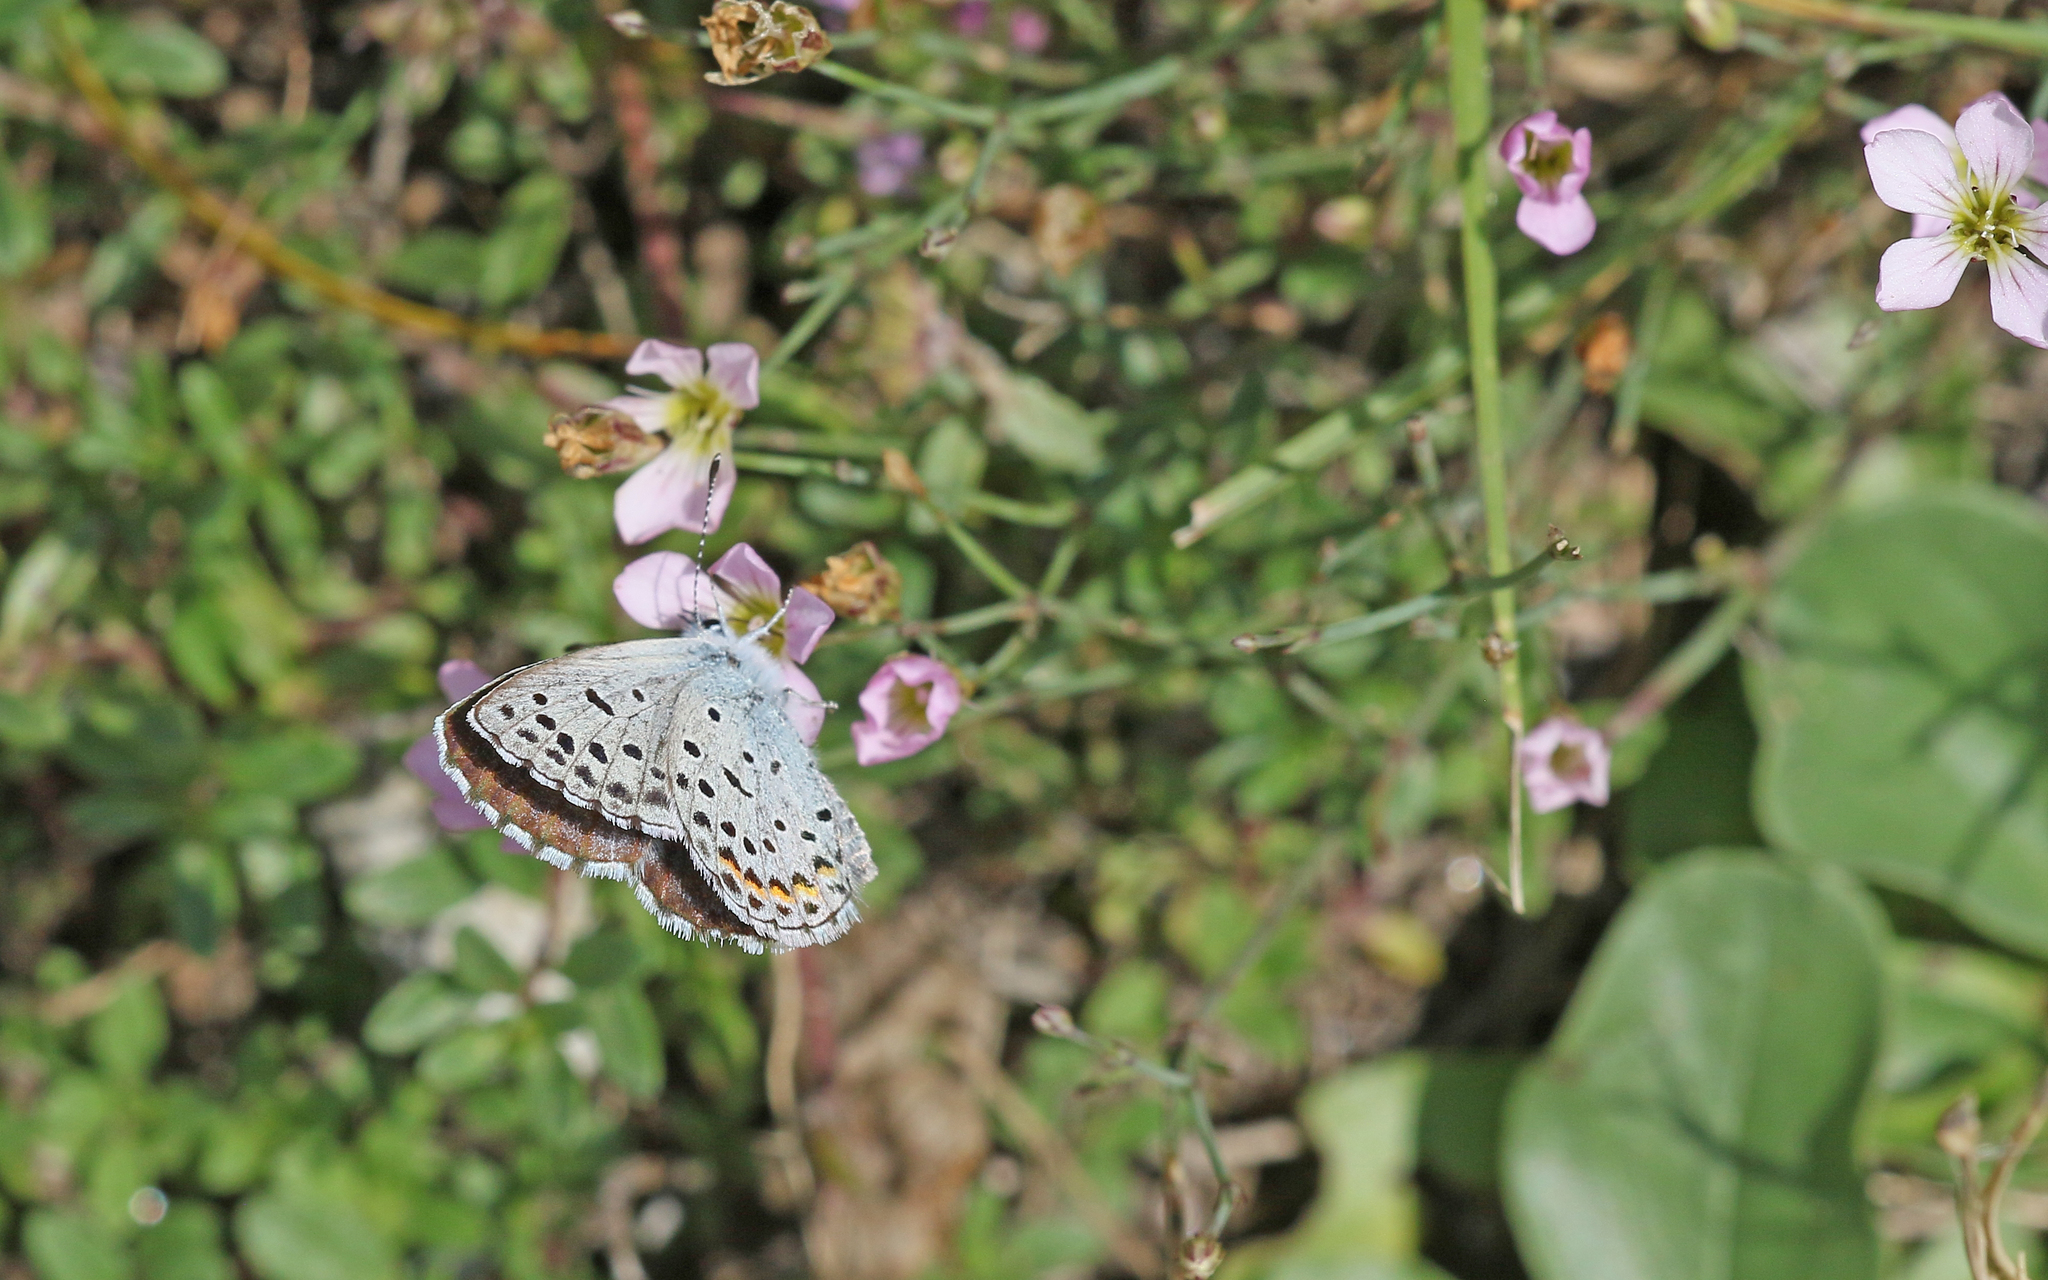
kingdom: Animalia
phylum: Arthropoda
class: Insecta
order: Lepidoptera
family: Lycaenidae
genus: Pseudophilotes
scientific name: Pseudophilotes baton
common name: Baton blue
